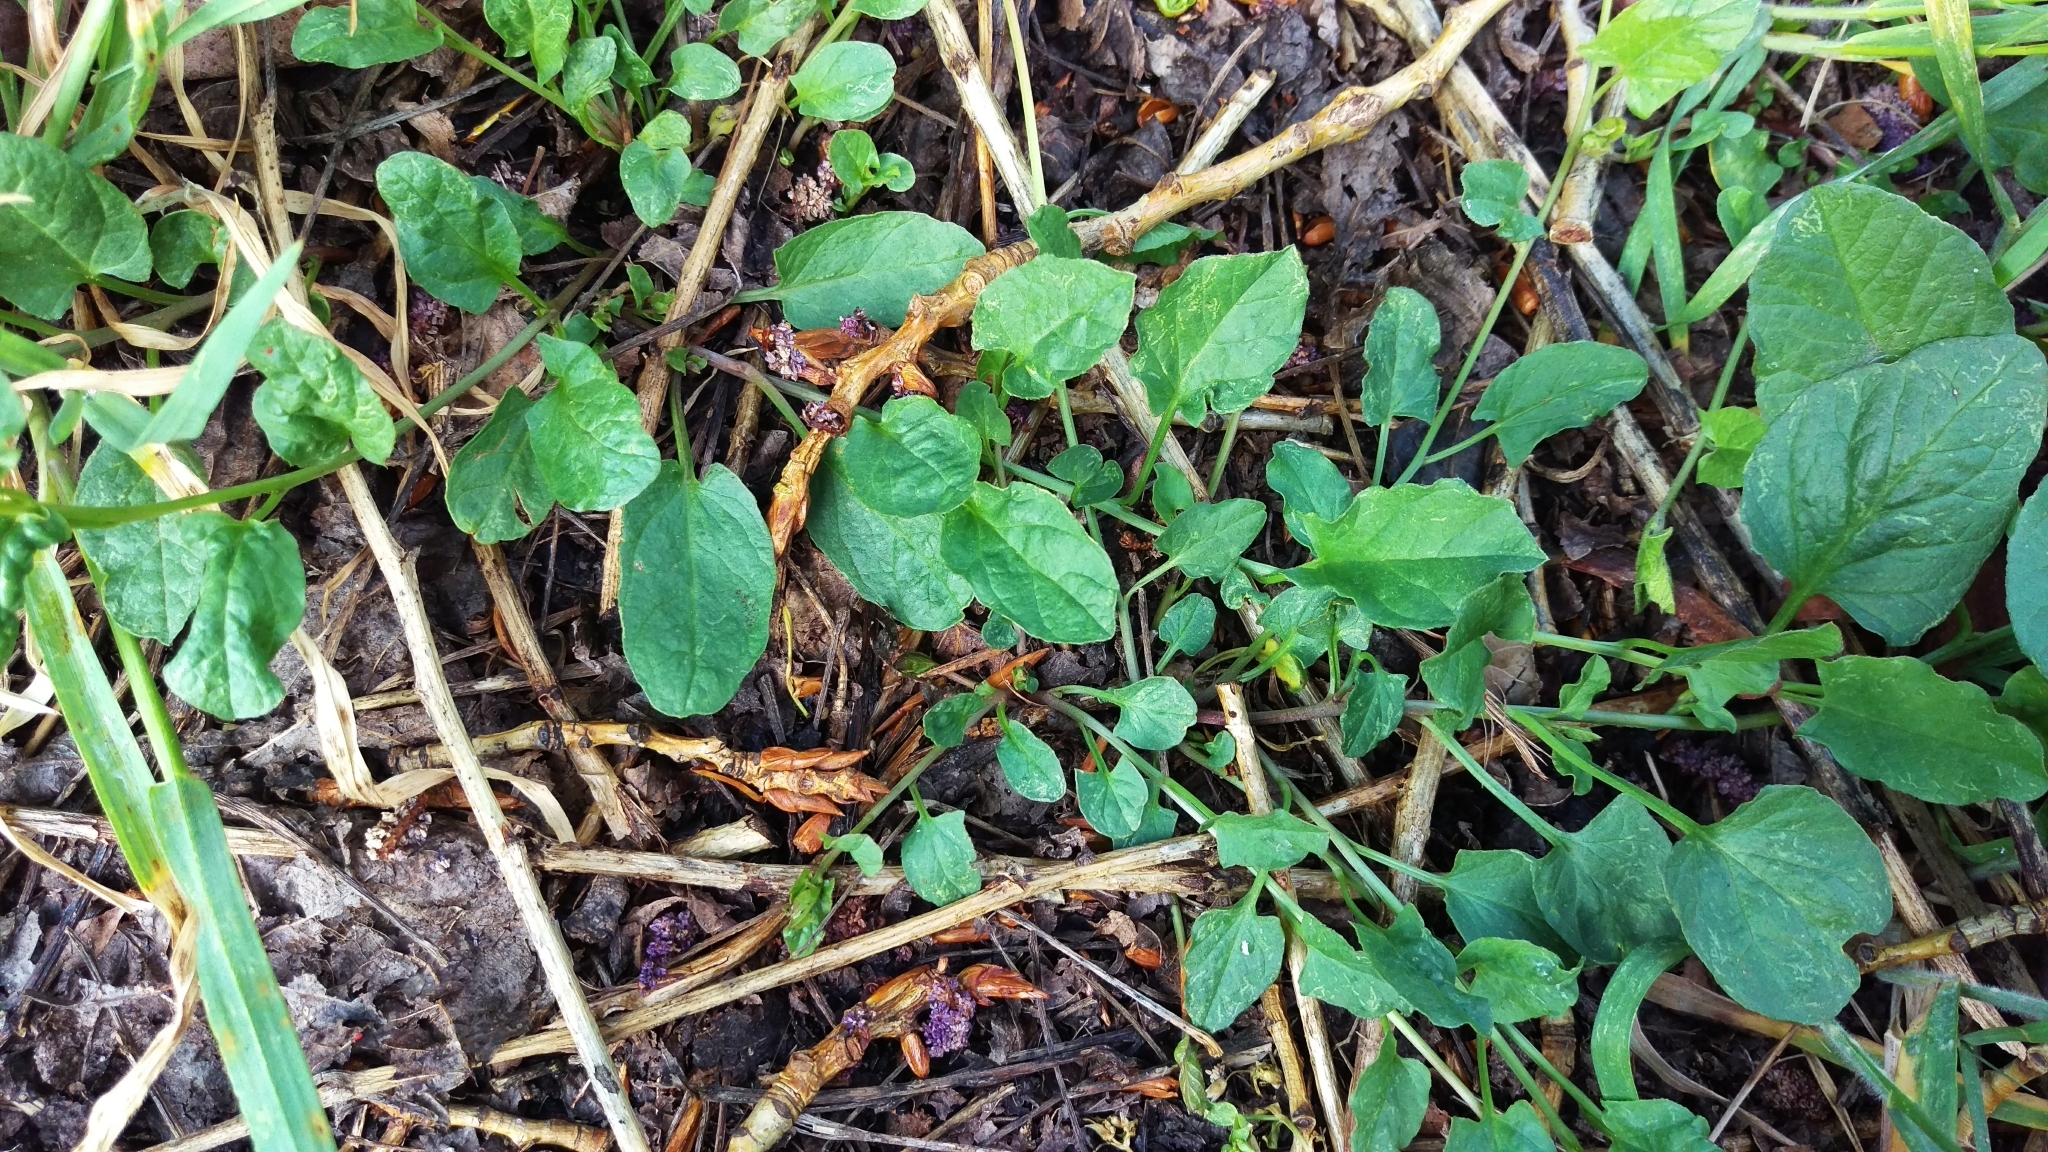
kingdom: Plantae
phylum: Tracheophyta
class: Magnoliopsida
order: Solanales
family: Convolvulaceae
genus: Convolvulus
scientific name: Convolvulus arvensis
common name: Field bindweed
